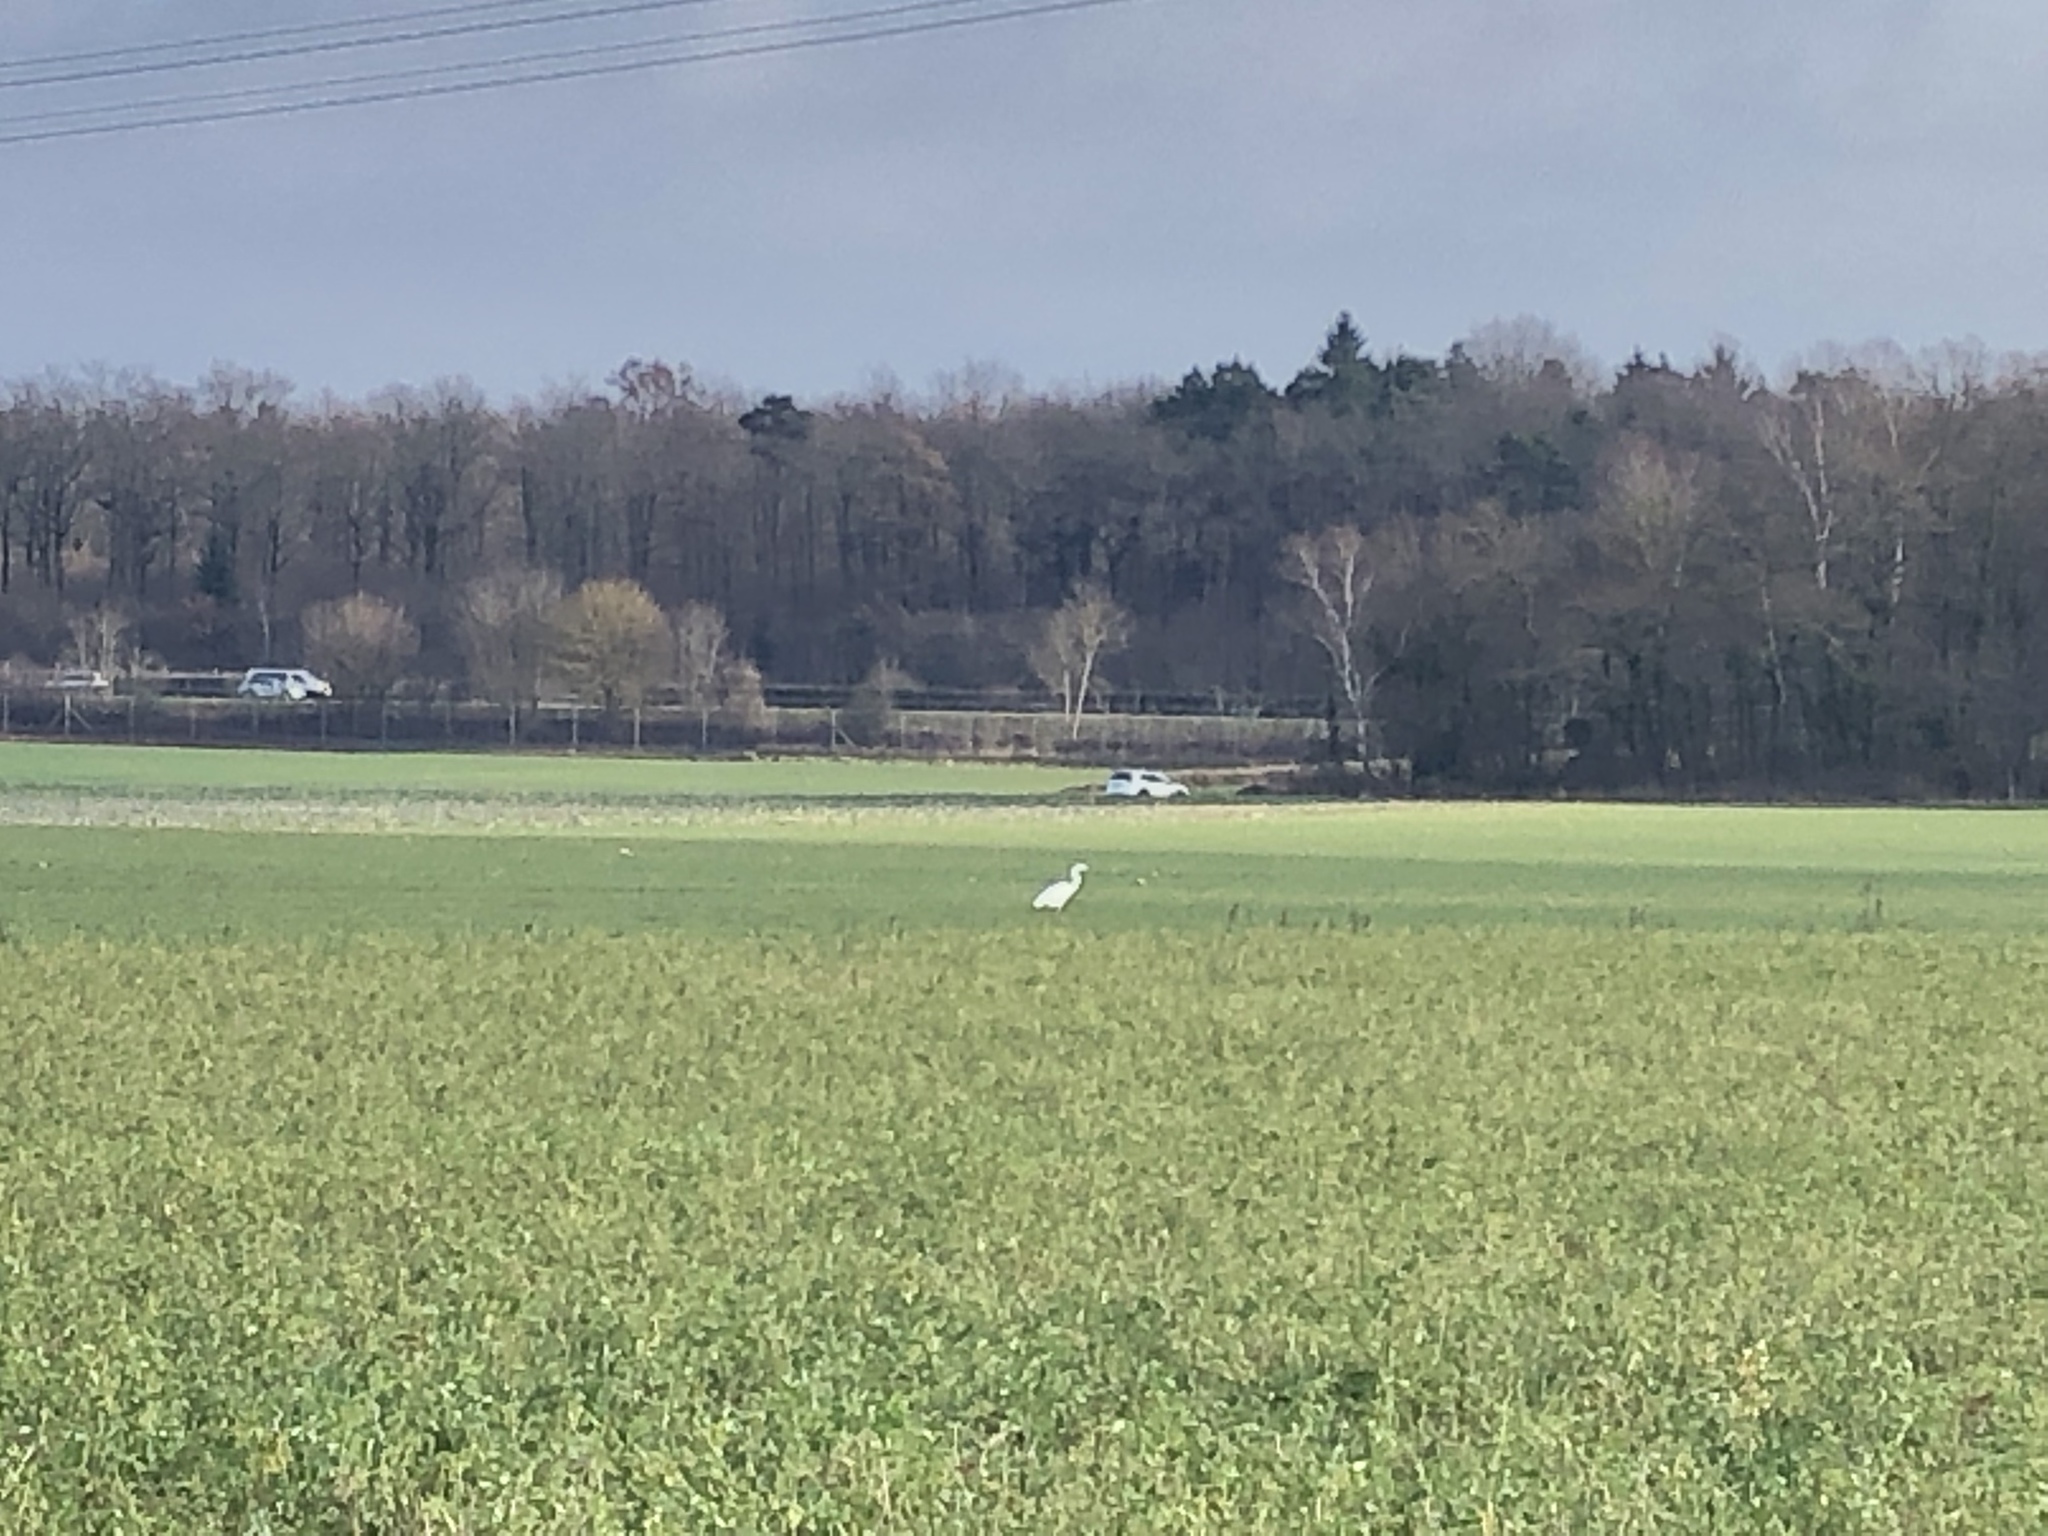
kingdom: Animalia
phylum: Chordata
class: Aves
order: Pelecaniformes
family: Ardeidae
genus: Ardea
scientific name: Ardea alba
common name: Great egret
